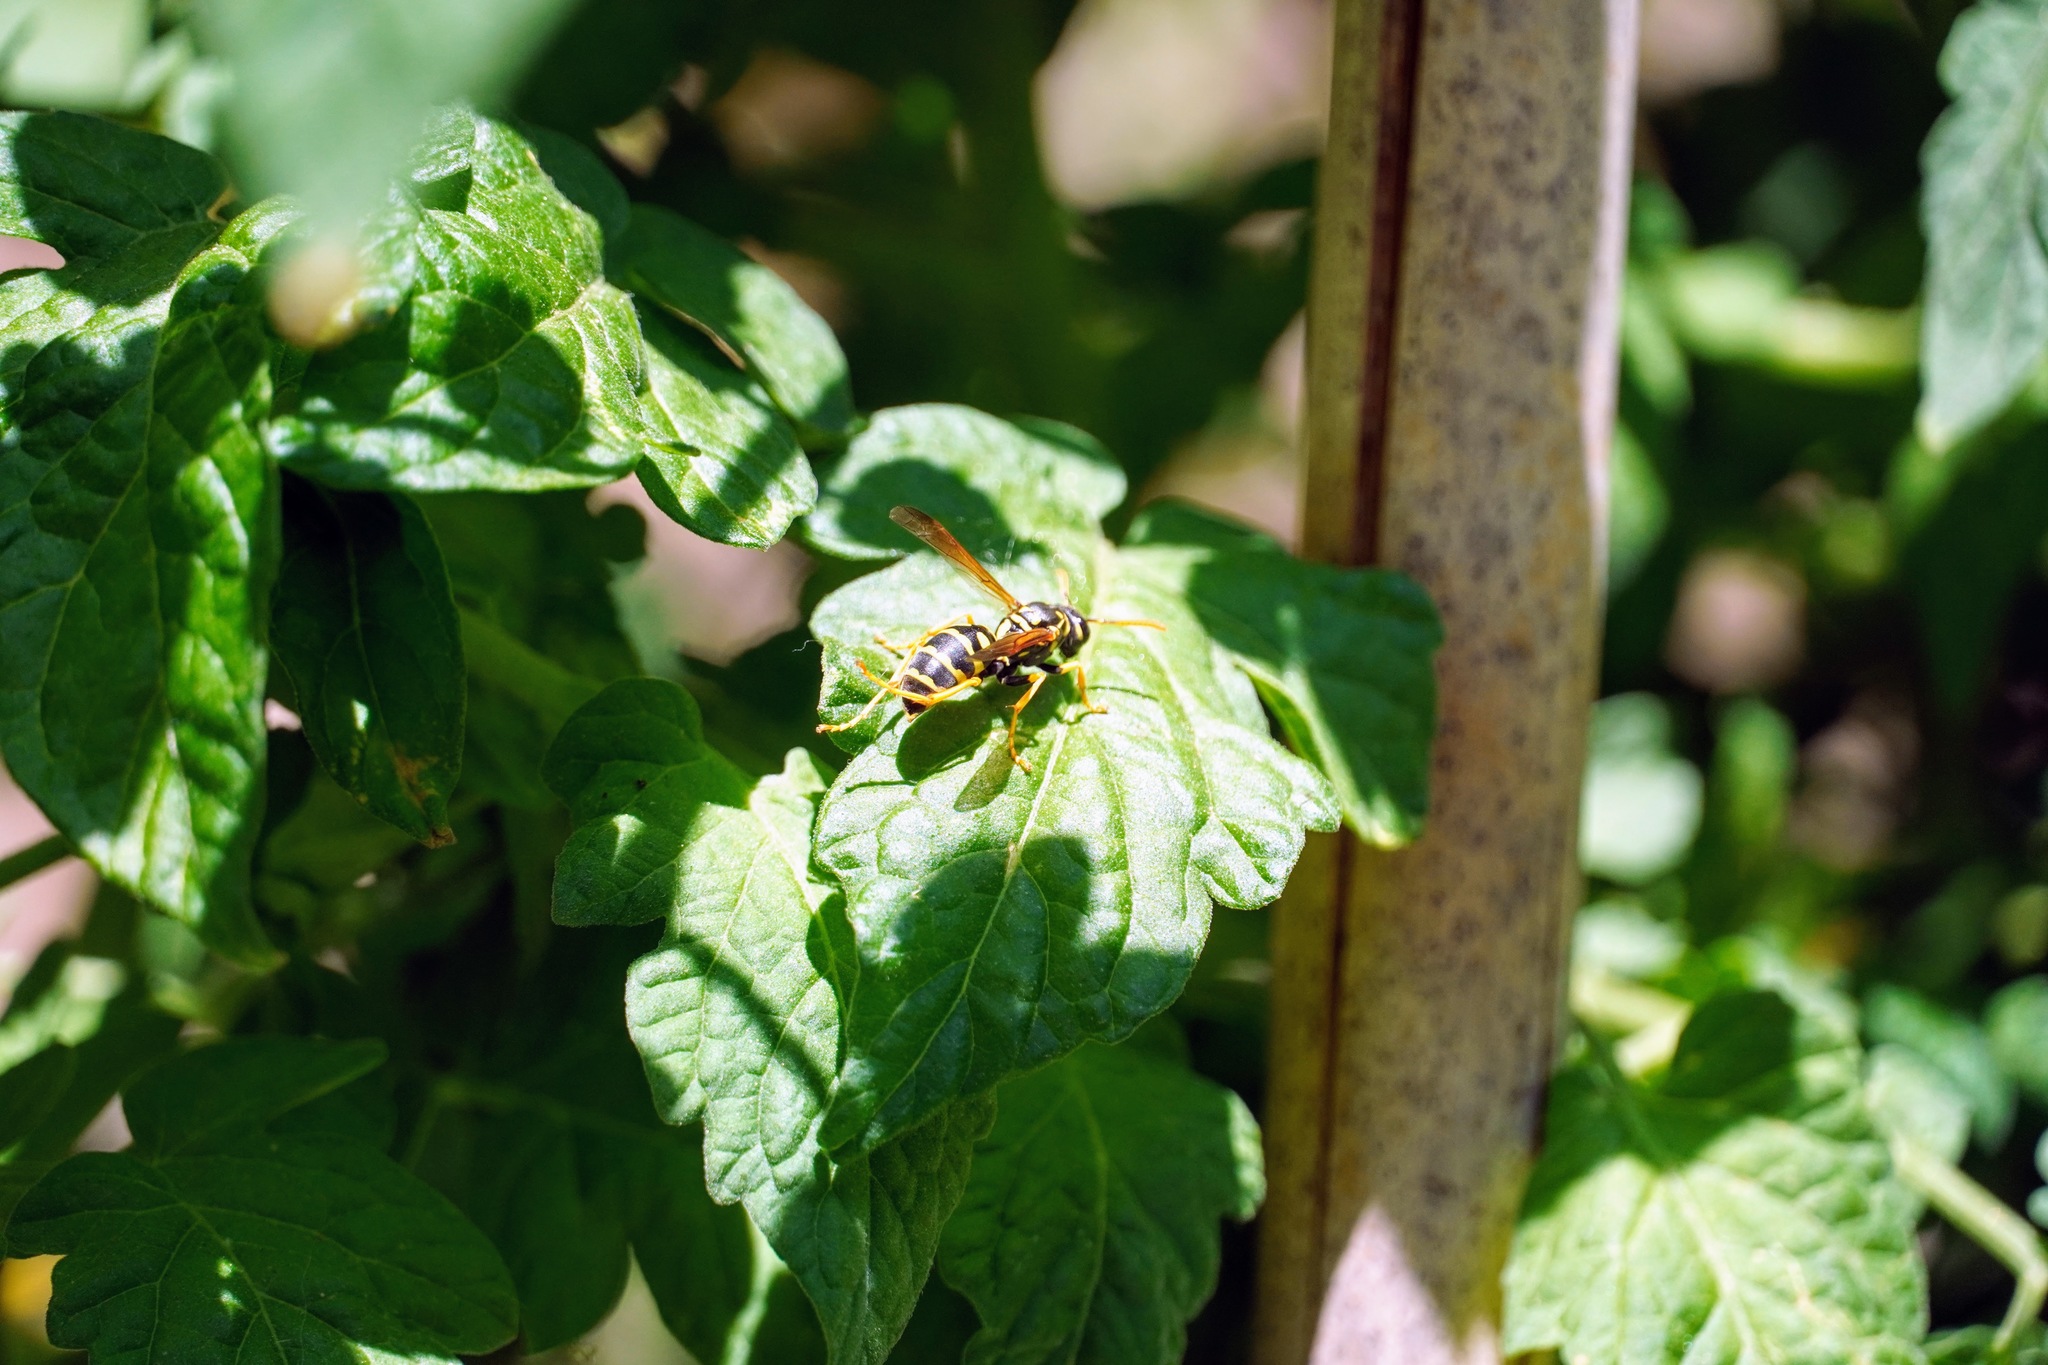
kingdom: Animalia
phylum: Arthropoda
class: Insecta
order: Hymenoptera
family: Eumenidae
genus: Polistes
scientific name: Polistes dominula
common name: Paper wasp
